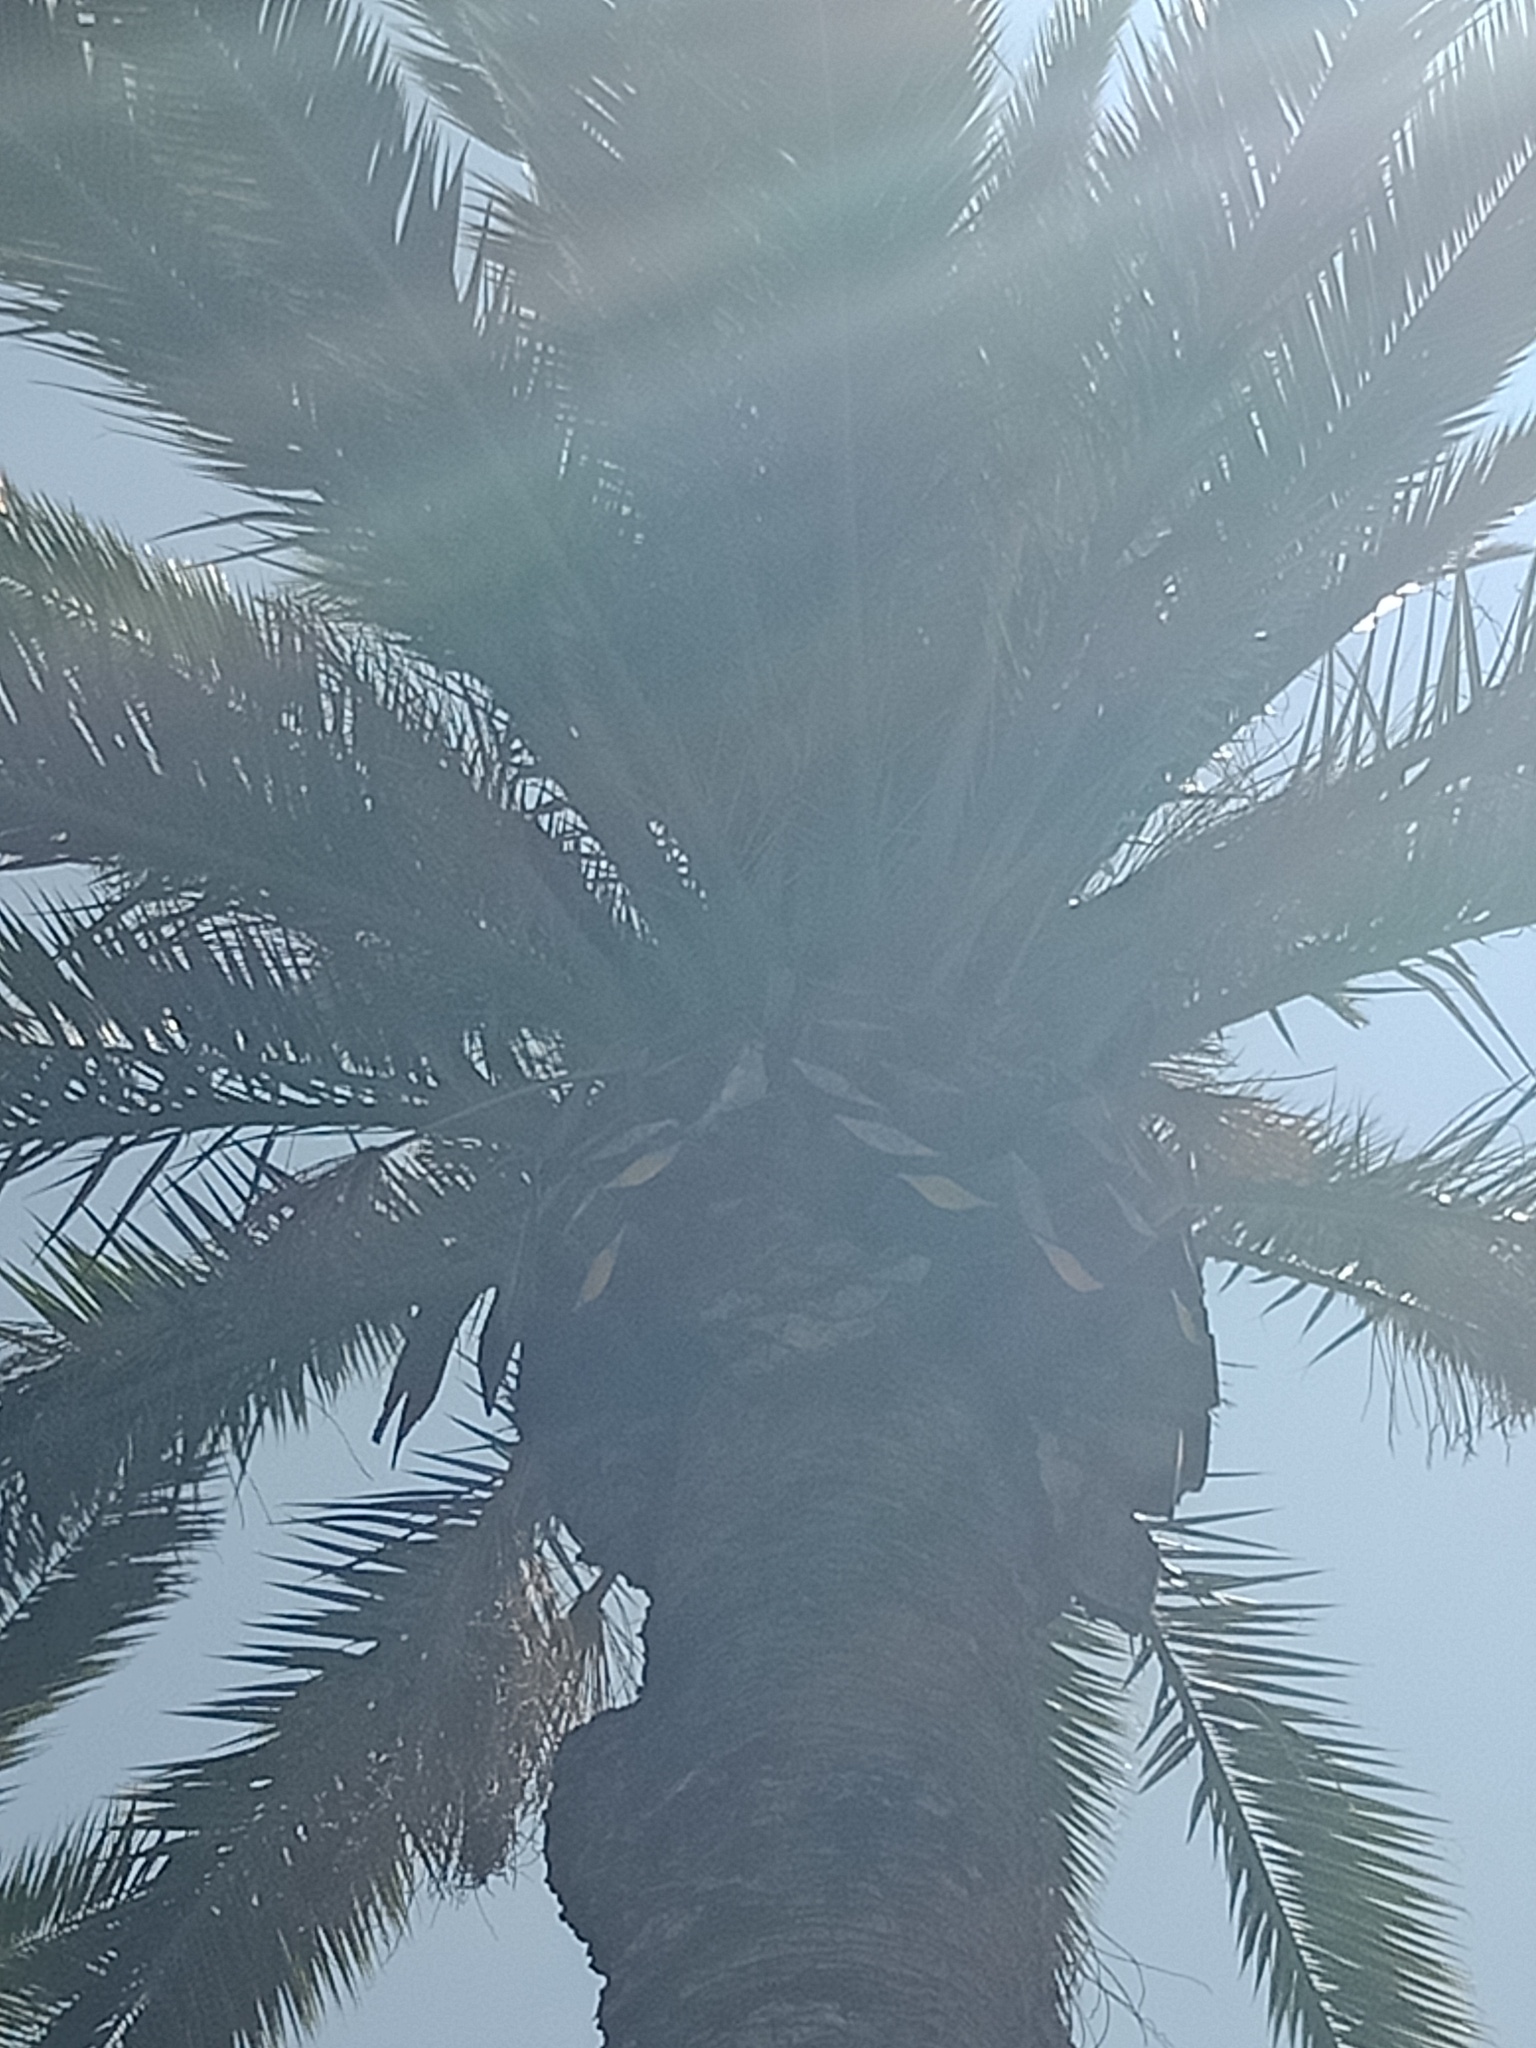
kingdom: Animalia
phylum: Chordata
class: Aves
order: Falconiformes
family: Falconidae
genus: Falco
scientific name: Falco cenchroides
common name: Nankeen kestrel
